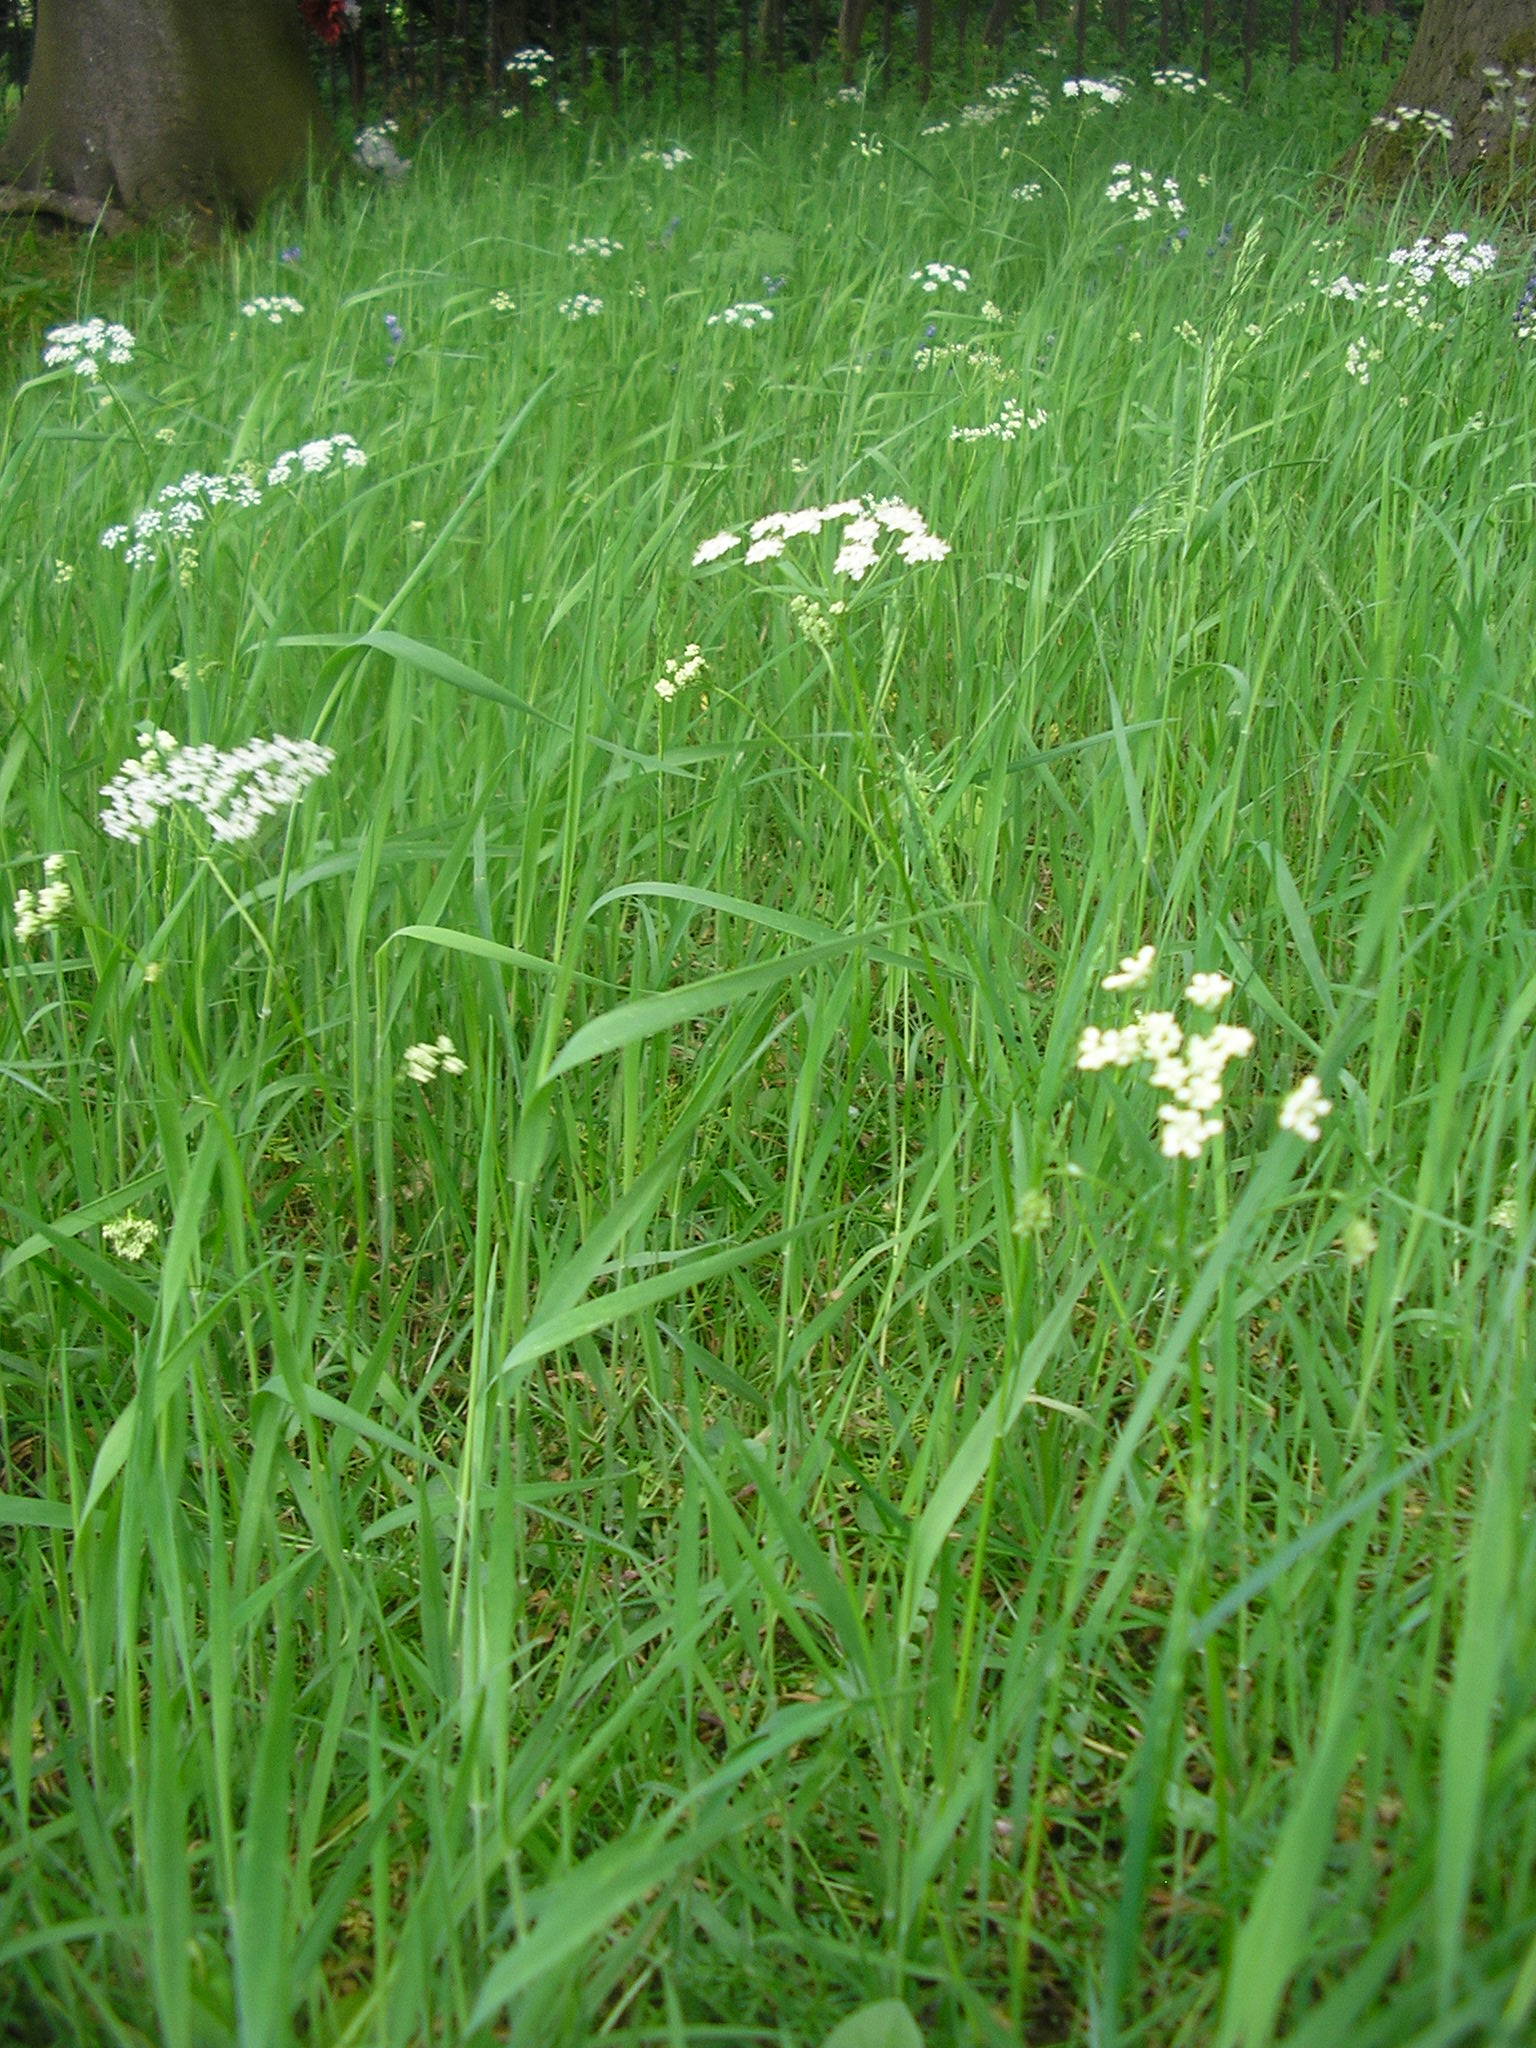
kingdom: Plantae
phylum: Tracheophyta
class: Magnoliopsida
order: Apiales
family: Apiaceae
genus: Conopodium
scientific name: Conopodium majus
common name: Pignut
